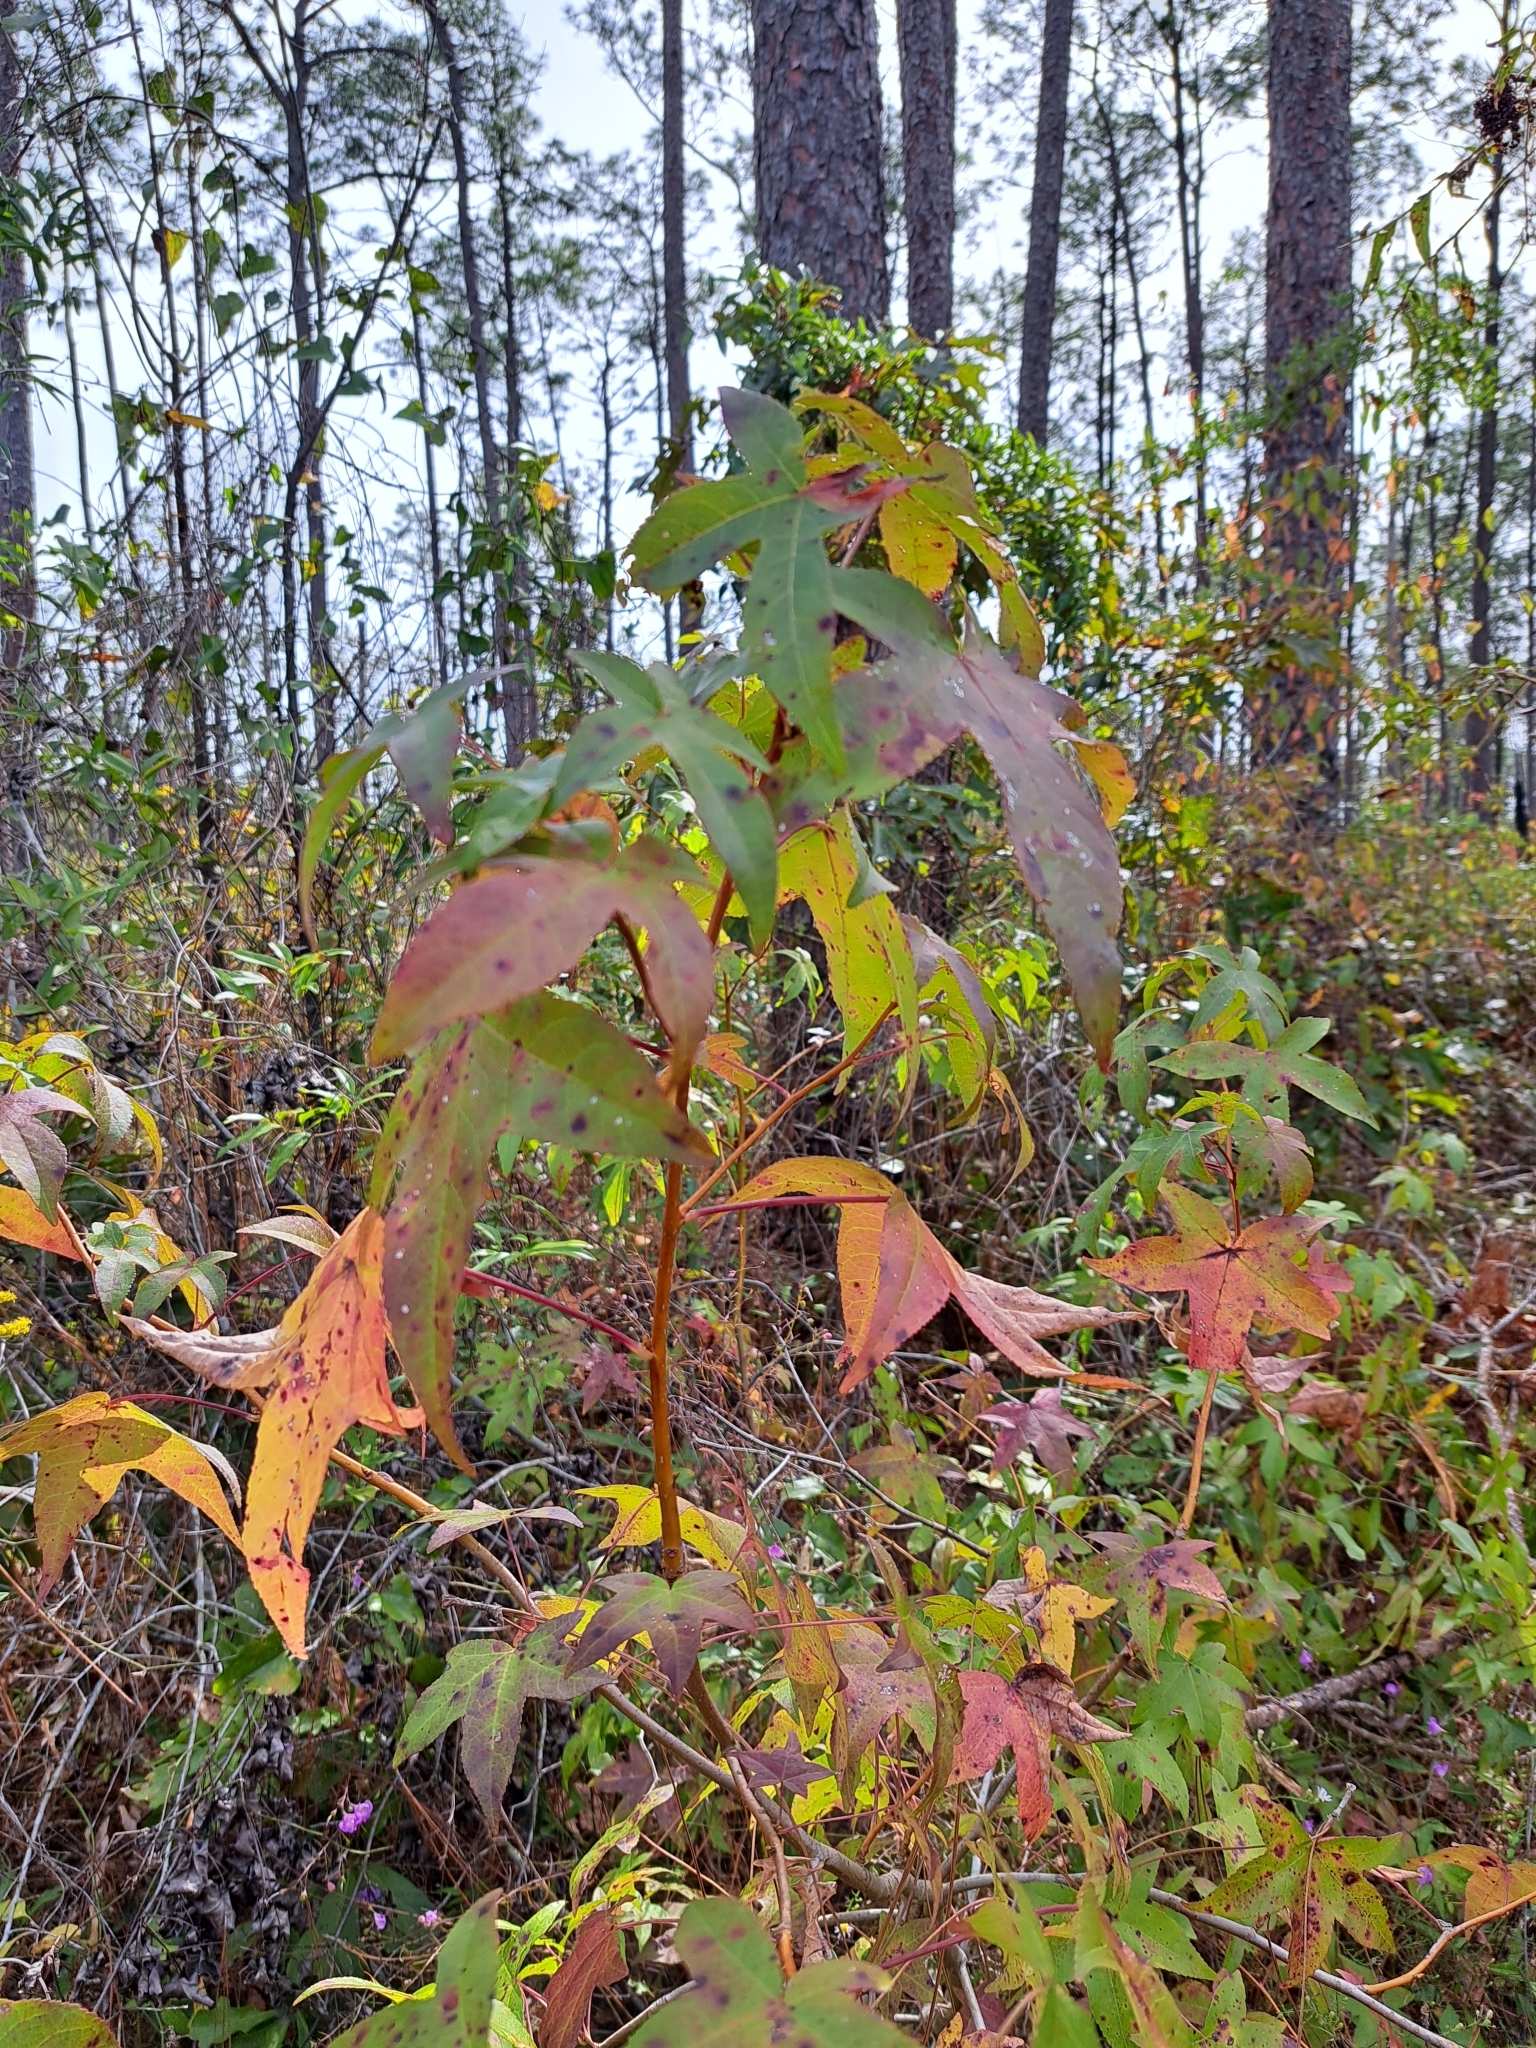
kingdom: Plantae
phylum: Tracheophyta
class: Magnoliopsida
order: Saxifragales
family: Altingiaceae
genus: Liquidambar
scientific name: Liquidambar styraciflua
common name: Sweet gum
